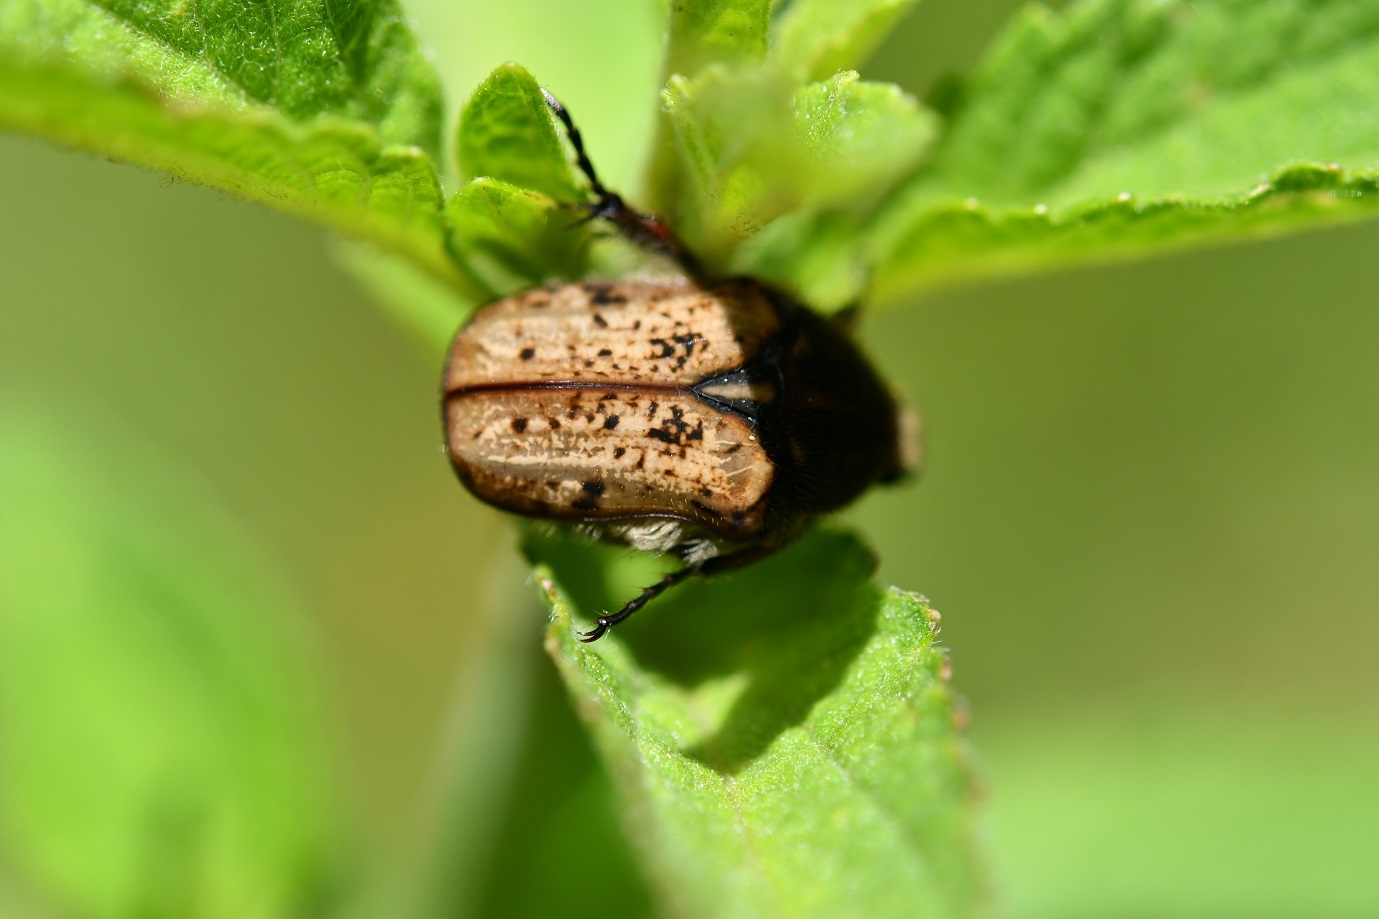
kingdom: Animalia
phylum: Arthropoda
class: Insecta
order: Coleoptera
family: Scarabaeidae
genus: Euphoria
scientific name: Euphoria lacandona
